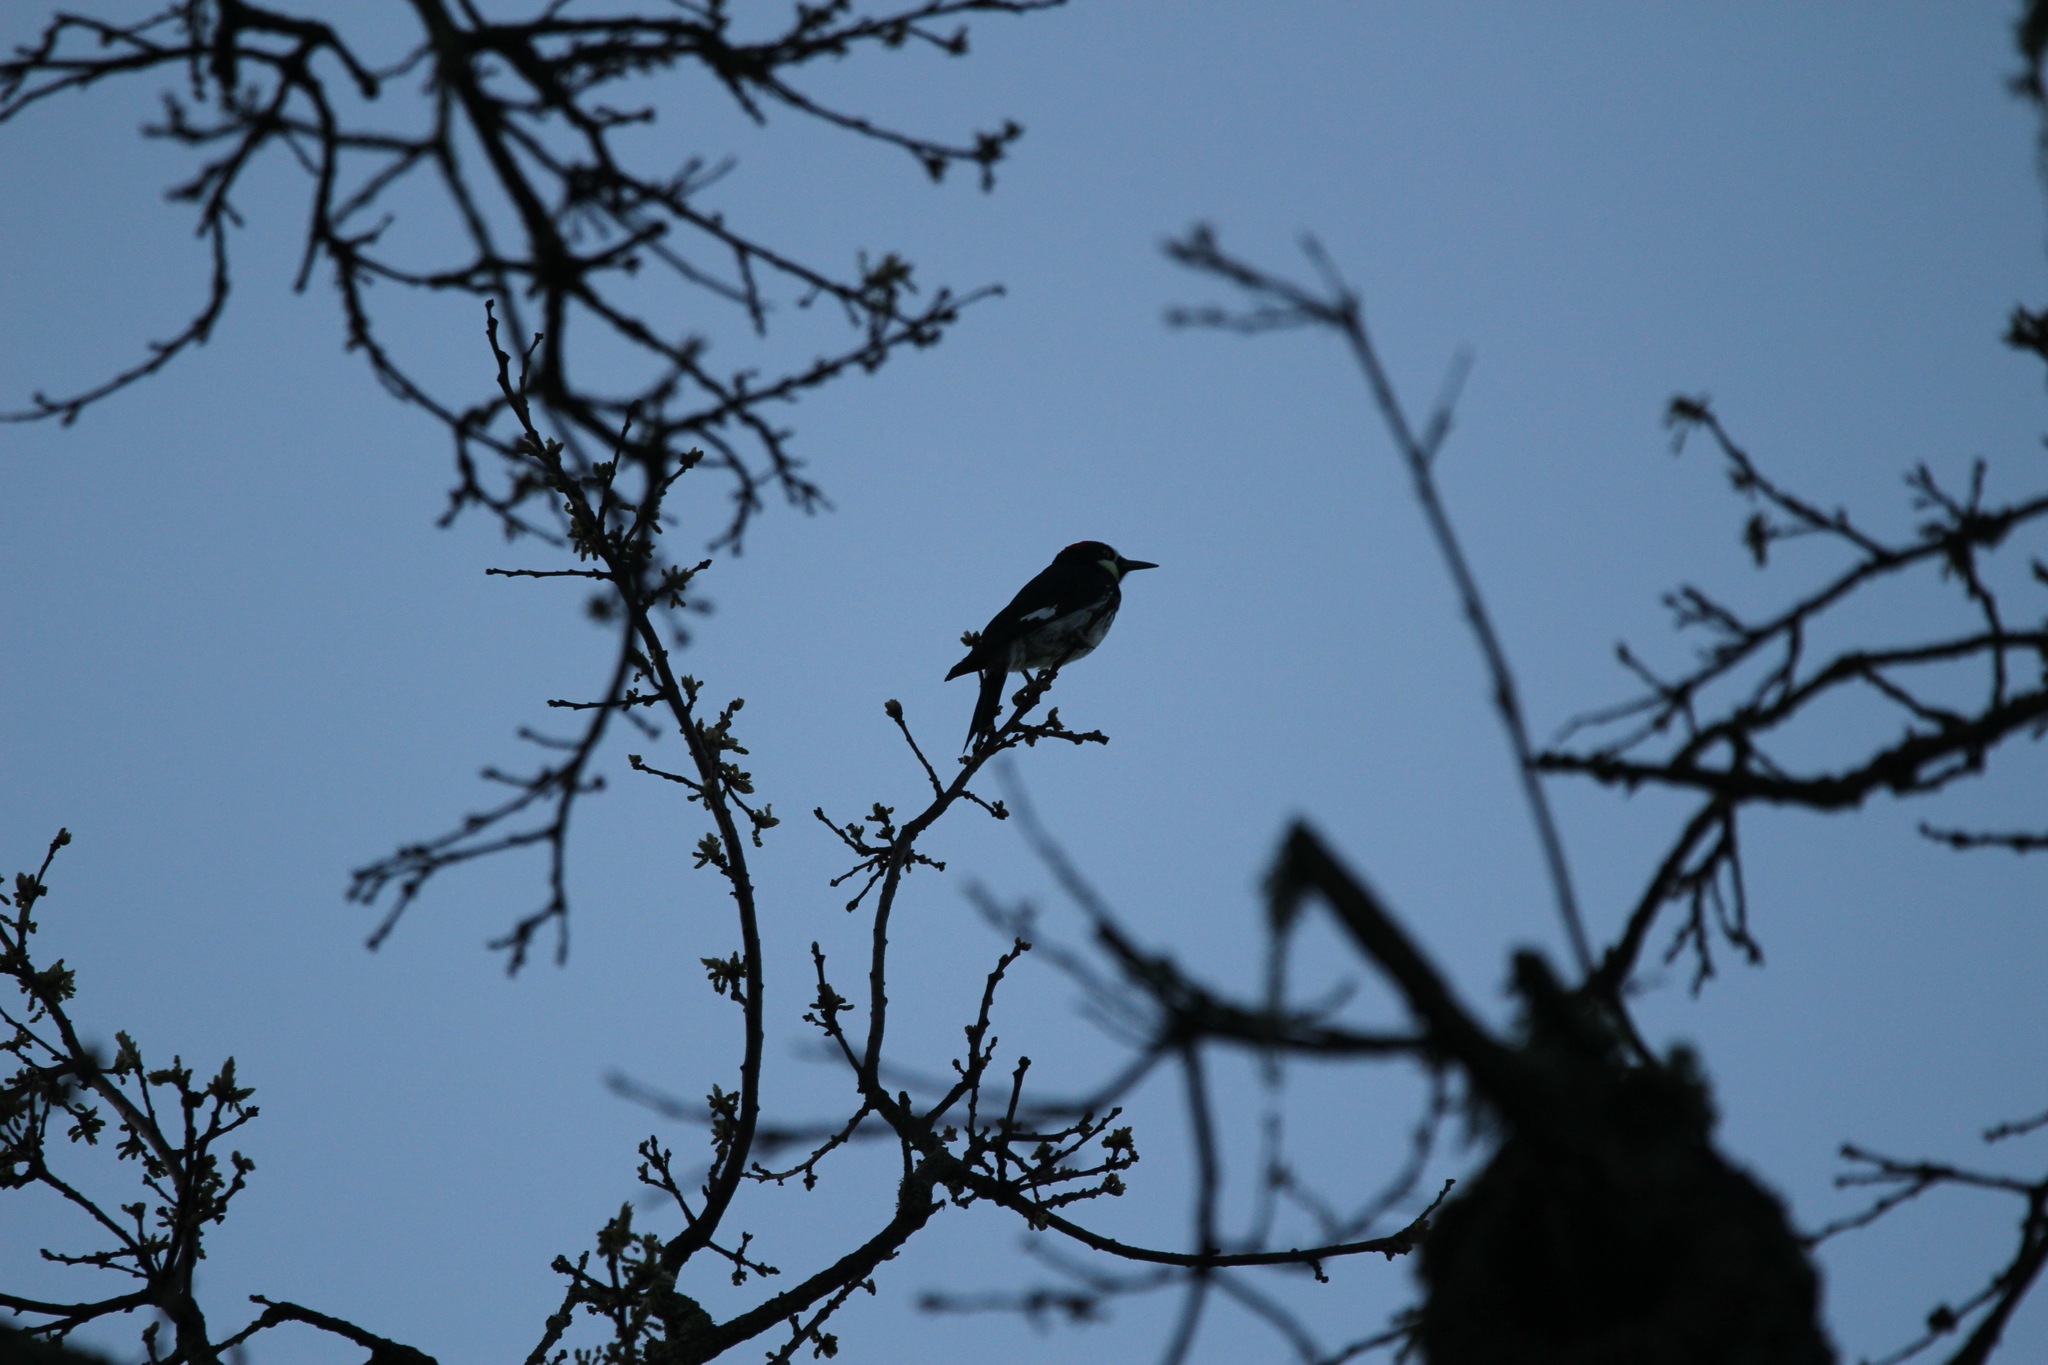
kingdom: Animalia
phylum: Chordata
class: Aves
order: Piciformes
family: Picidae
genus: Melanerpes
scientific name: Melanerpes formicivorus
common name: Acorn woodpecker
